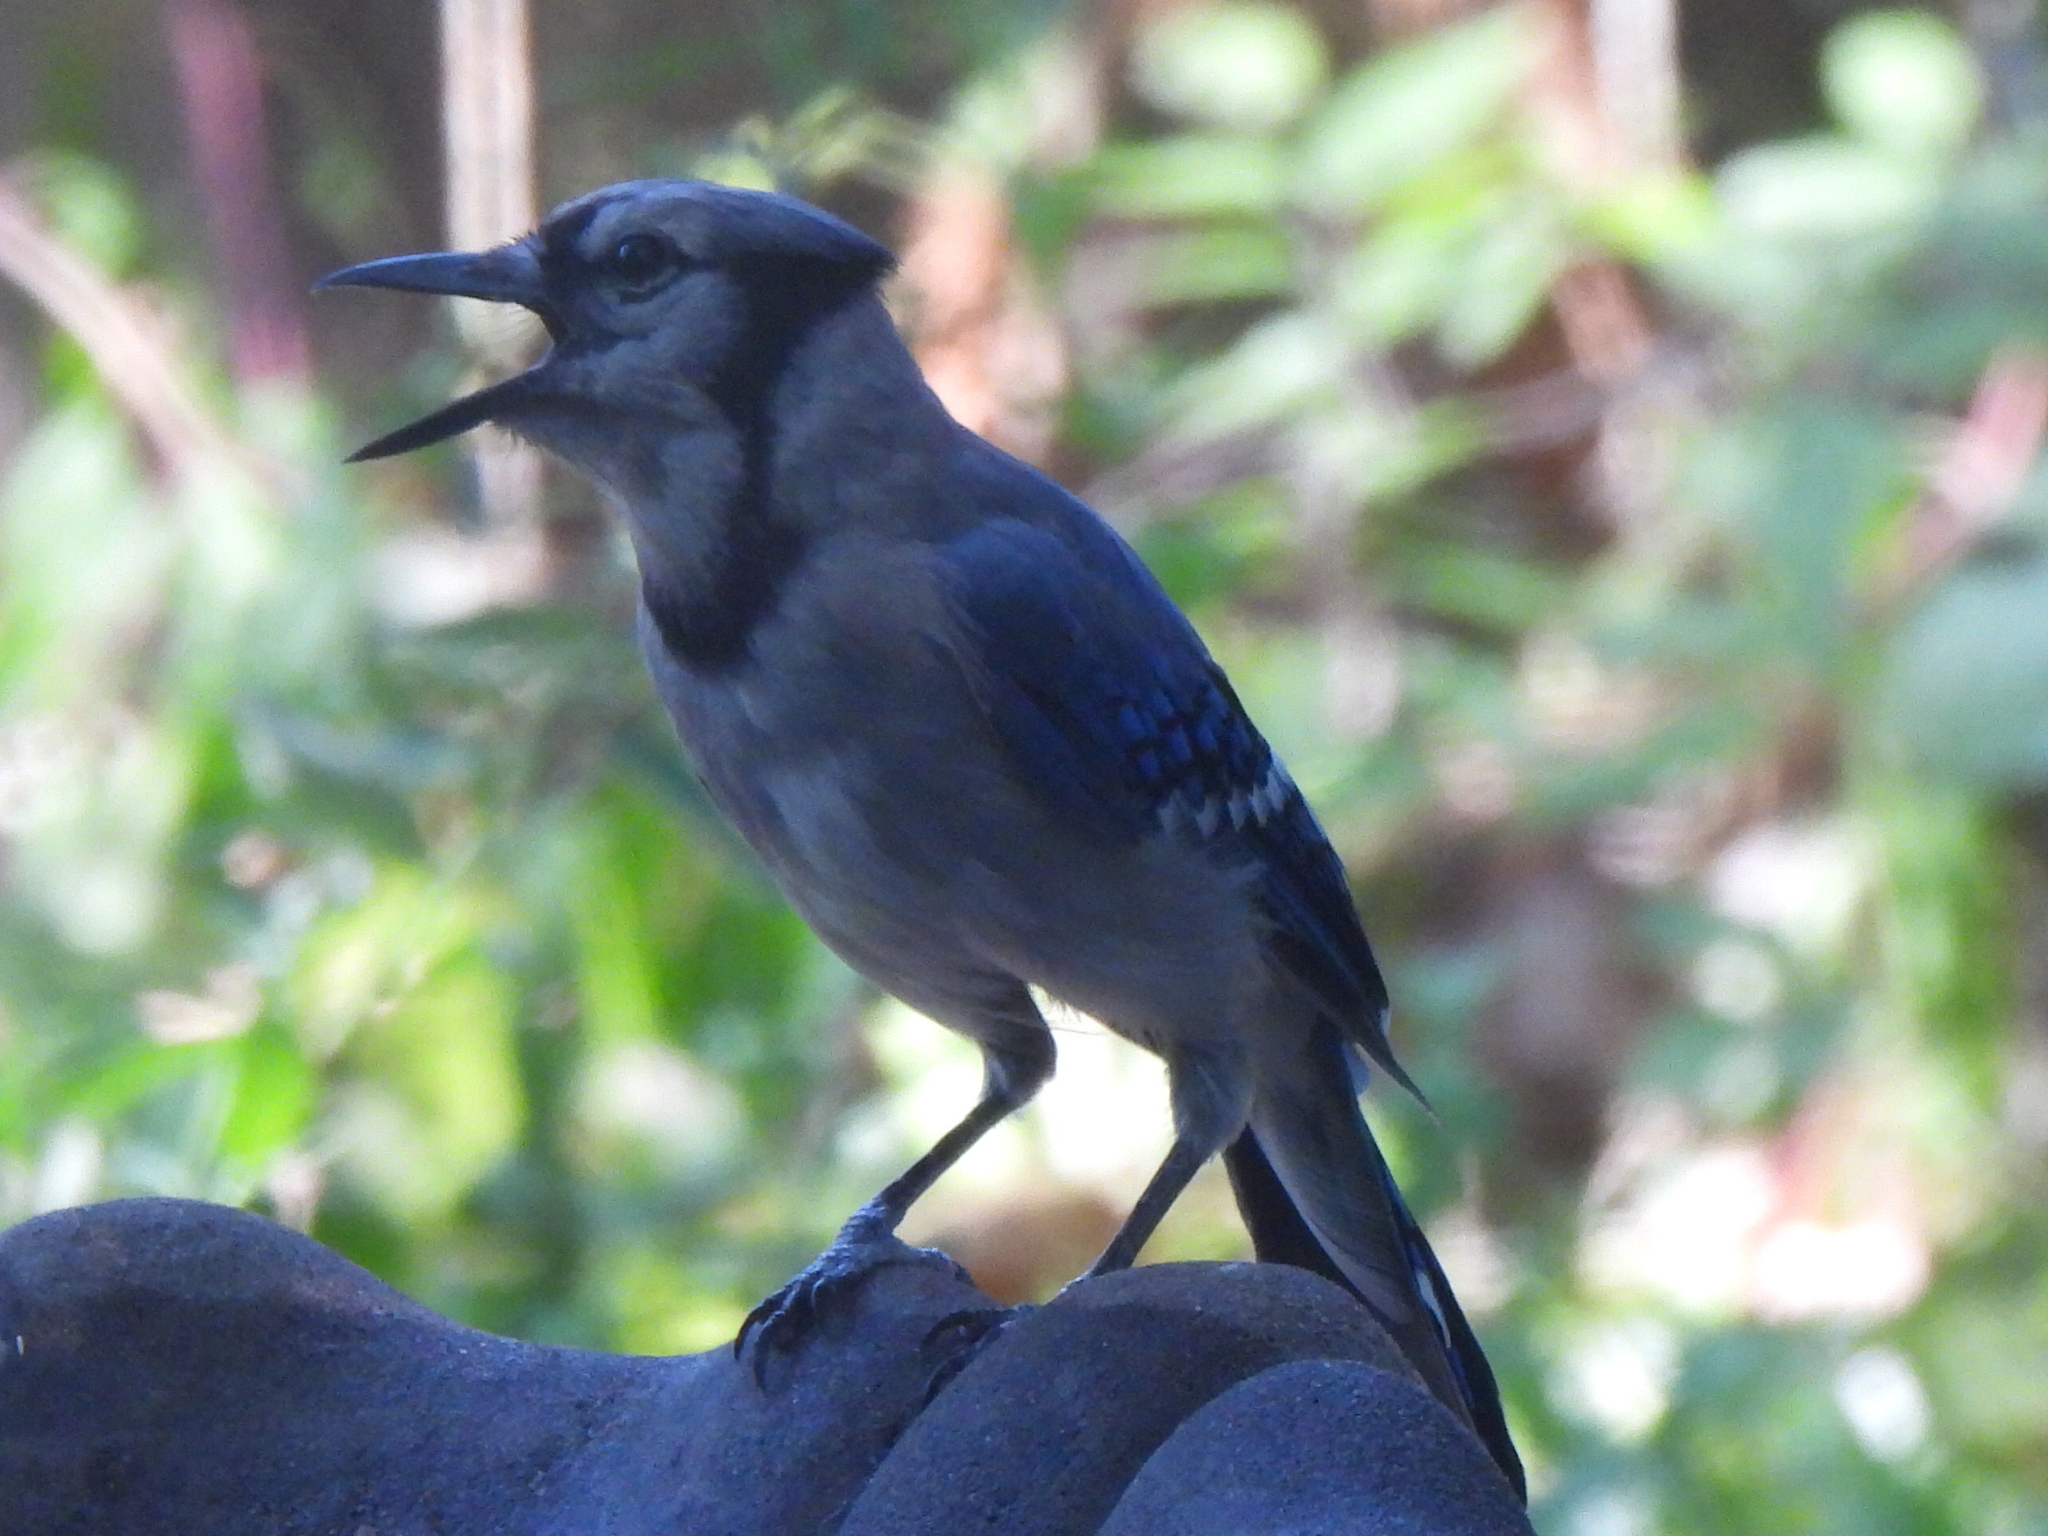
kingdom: Animalia
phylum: Chordata
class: Aves
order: Passeriformes
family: Corvidae
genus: Cyanocitta
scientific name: Cyanocitta cristata
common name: Blue jay
